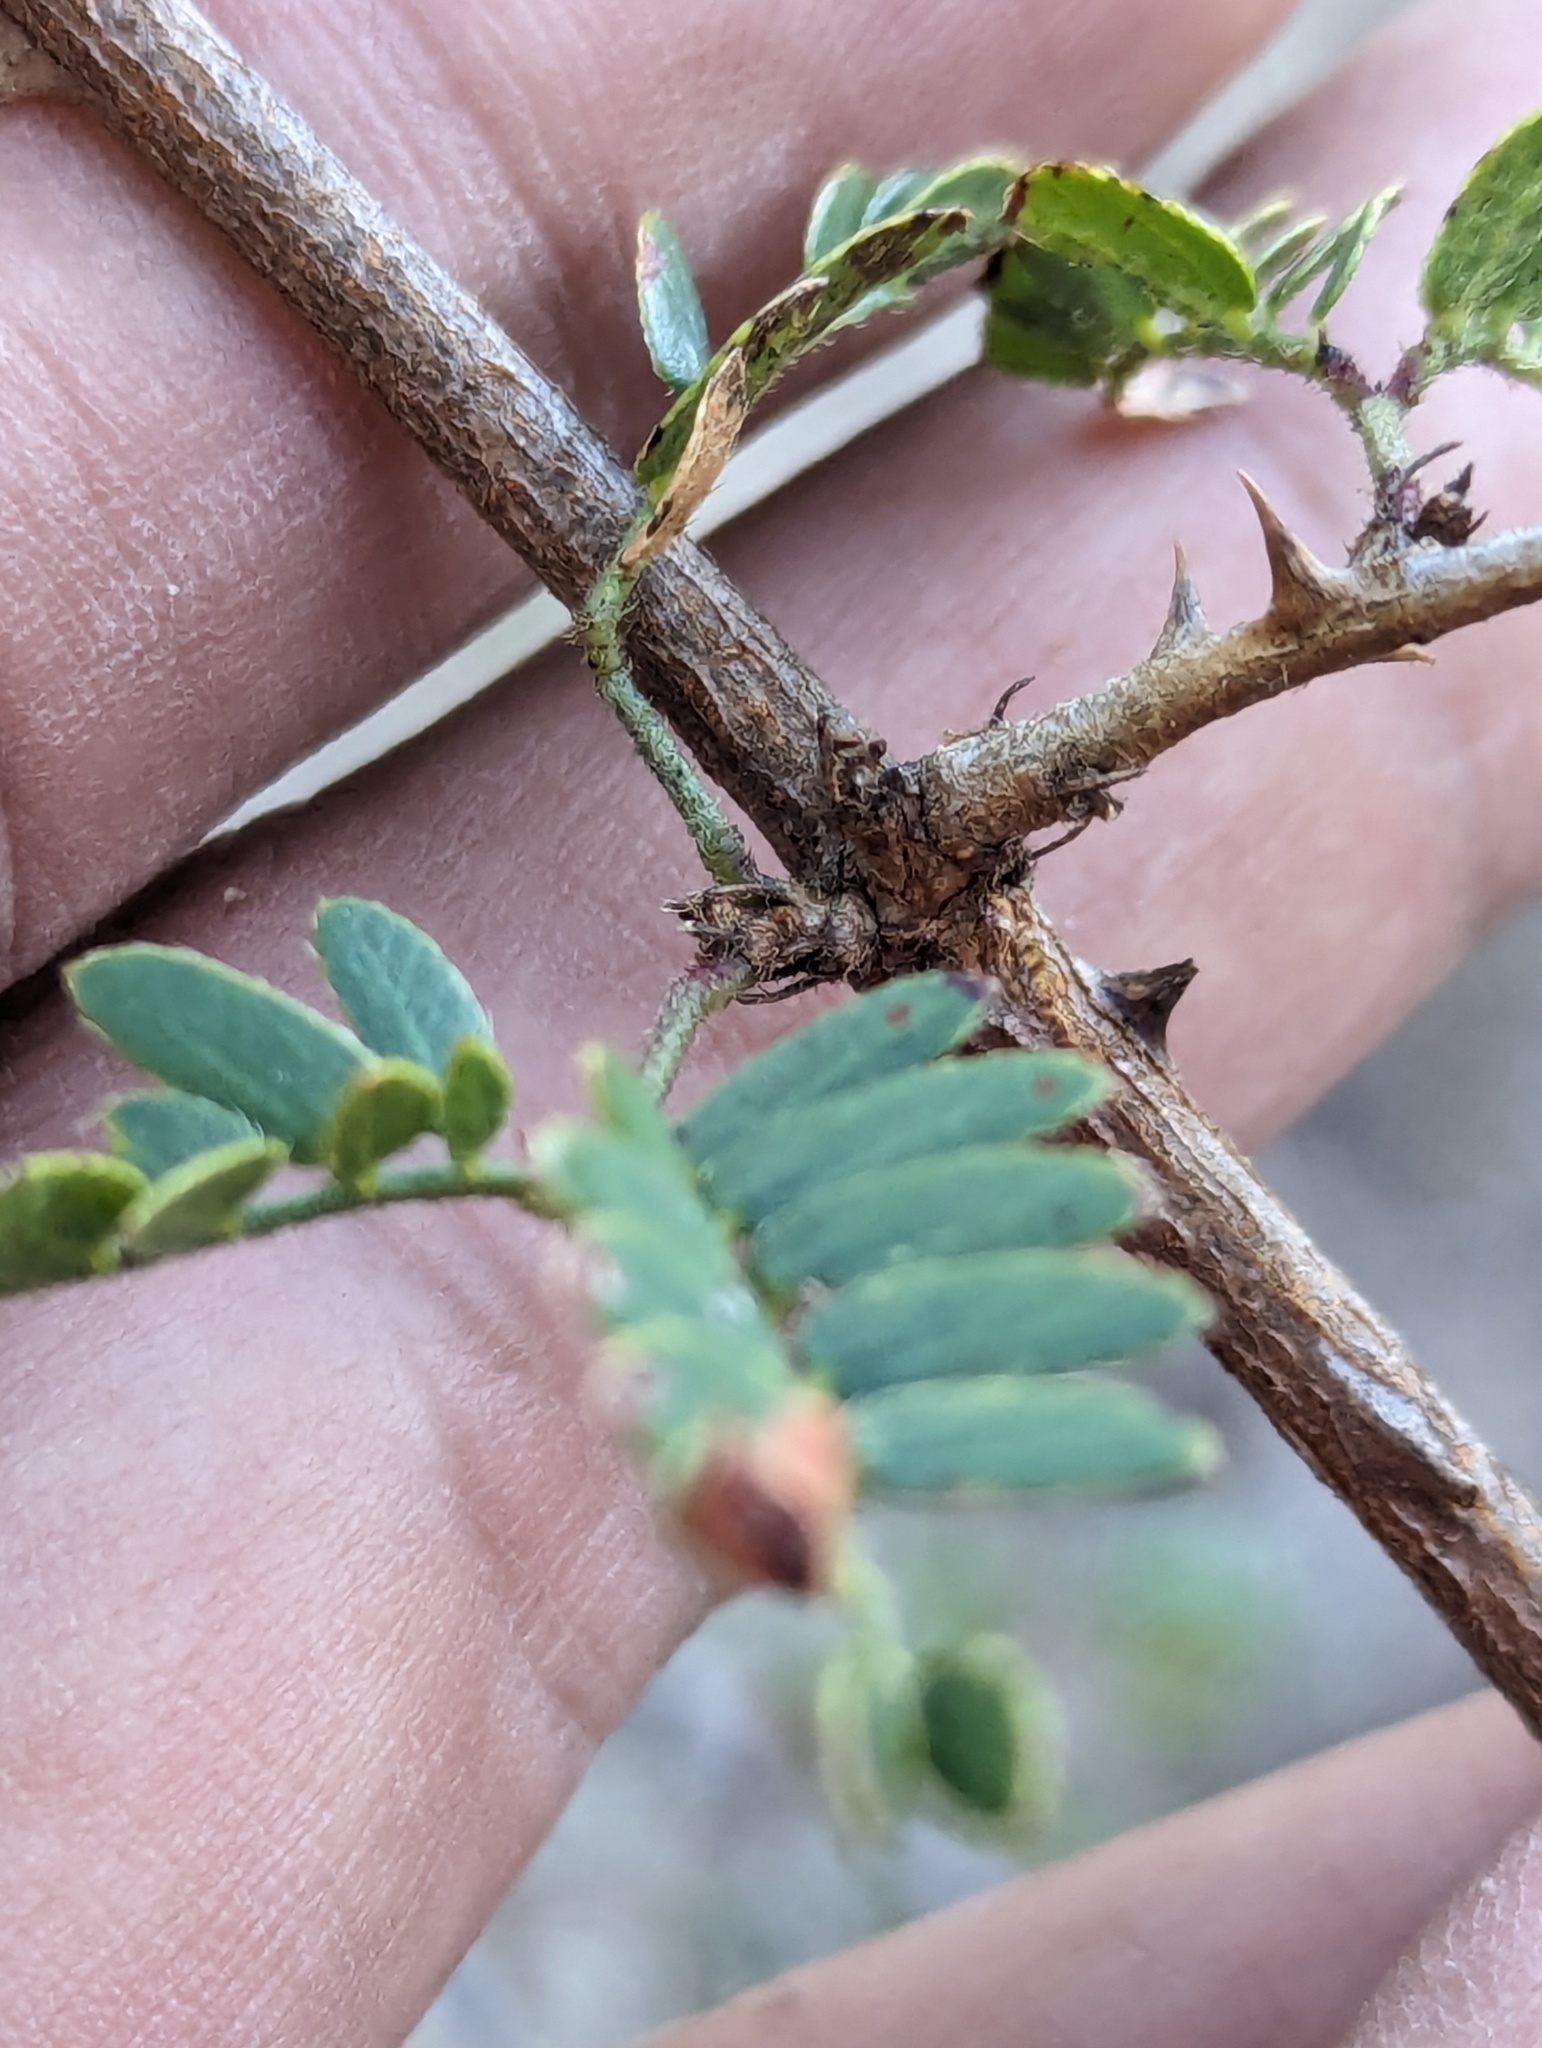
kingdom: Plantae
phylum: Tracheophyta
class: Magnoliopsida
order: Fabales
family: Fabaceae
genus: Mimosa
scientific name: Mimosa tricephala
